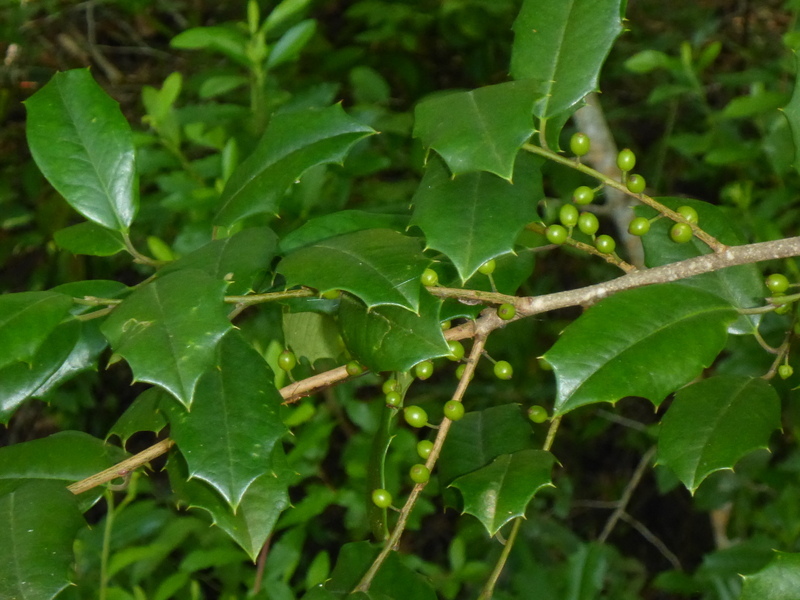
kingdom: Plantae
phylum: Tracheophyta
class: Magnoliopsida
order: Aquifoliales
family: Aquifoliaceae
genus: Ilex
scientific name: Ilex opaca
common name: American holly
